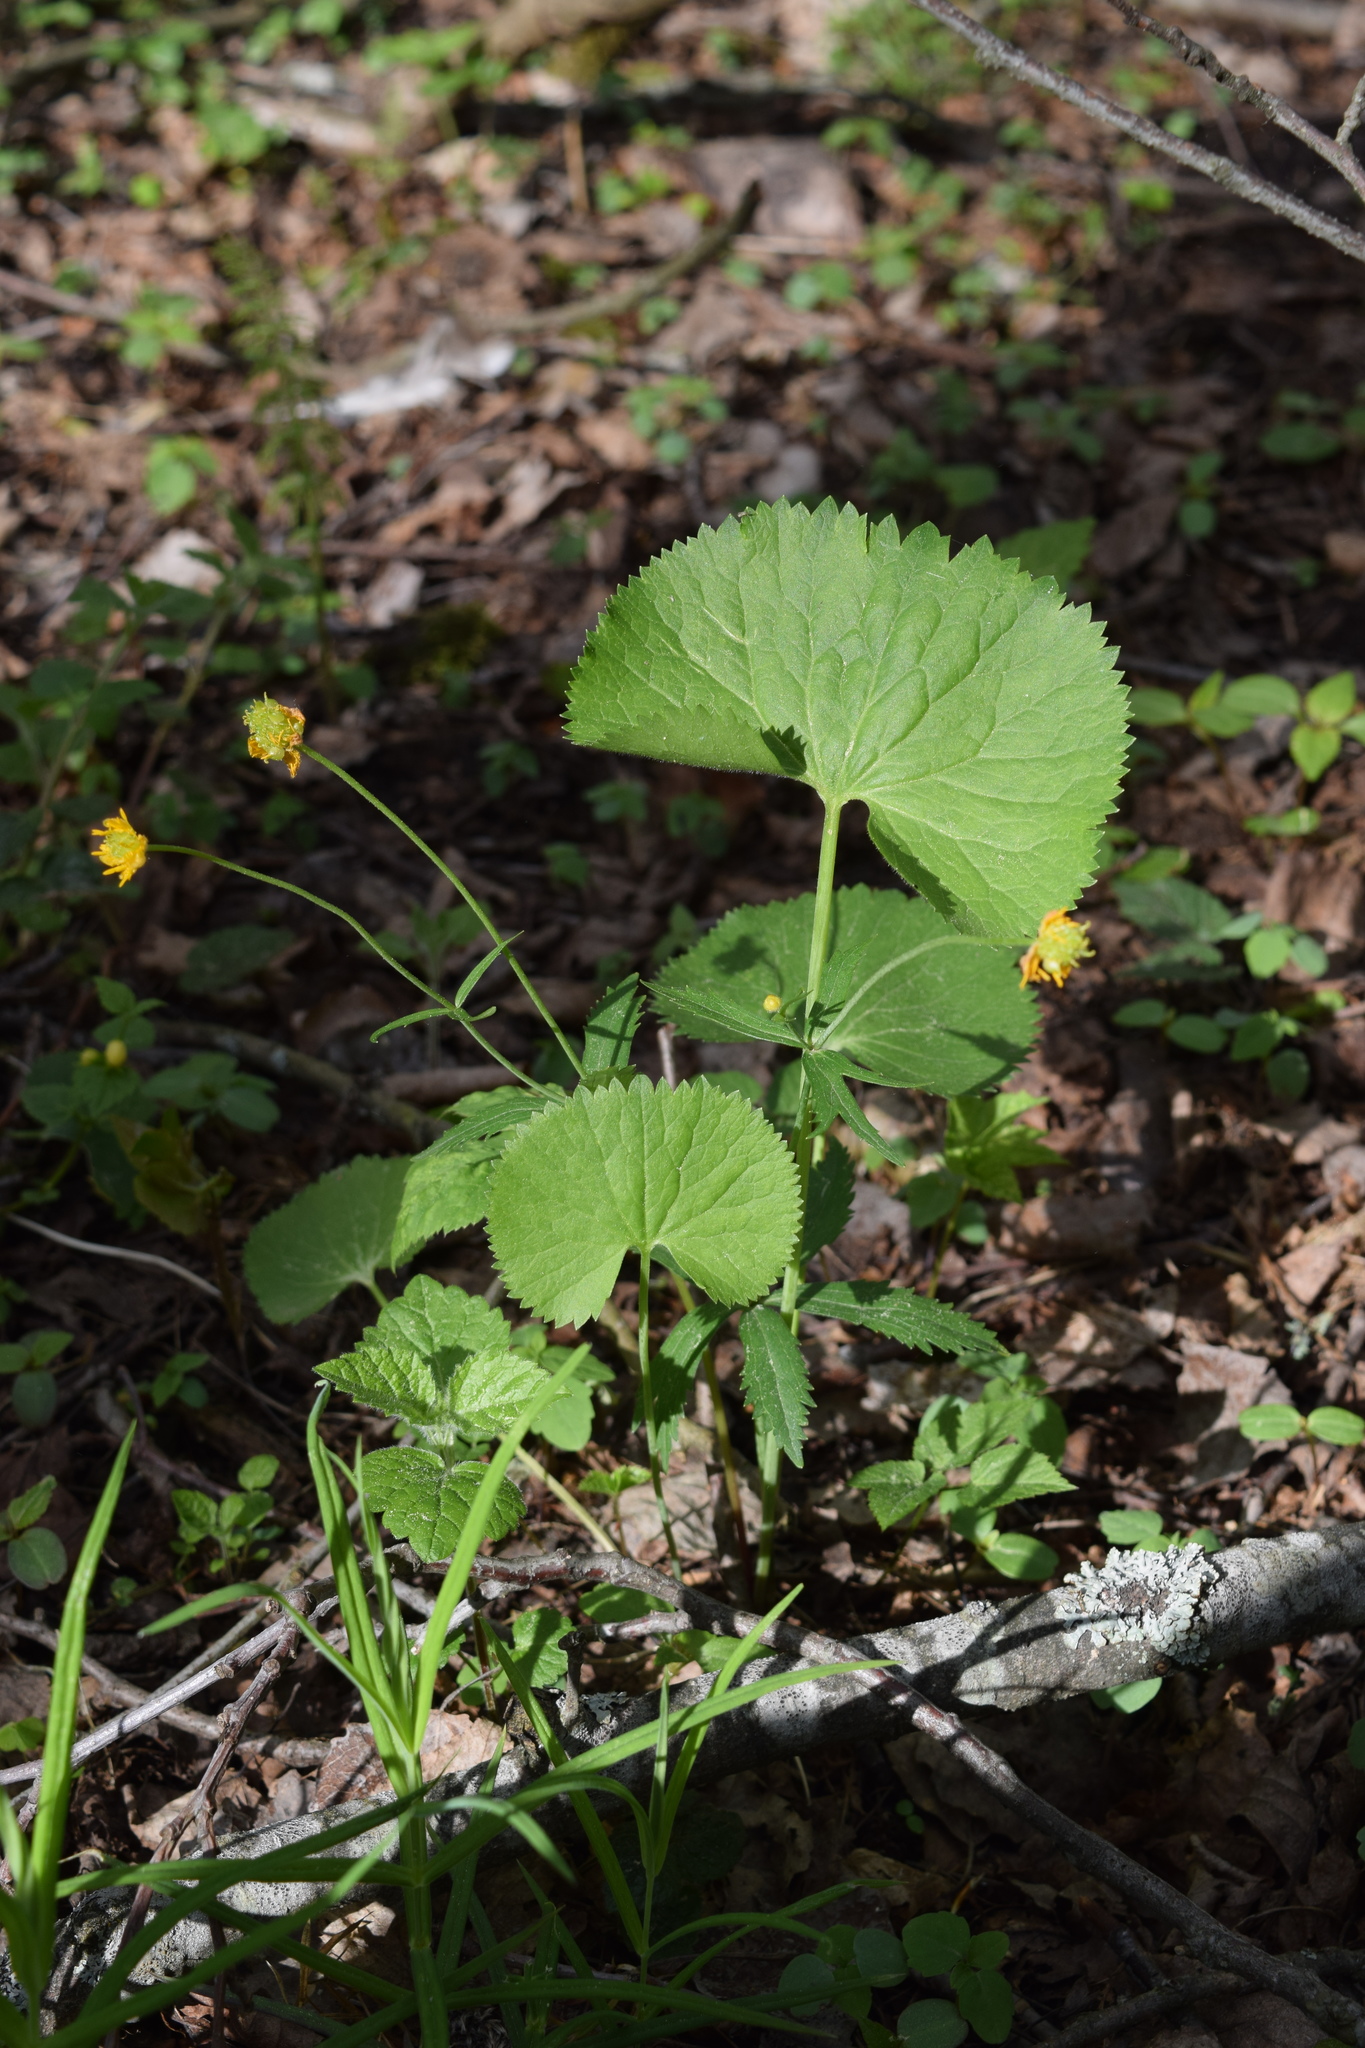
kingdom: Plantae
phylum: Tracheophyta
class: Magnoliopsida
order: Ranunculales
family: Ranunculaceae
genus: Ranunculus
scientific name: Ranunculus cassubicus
